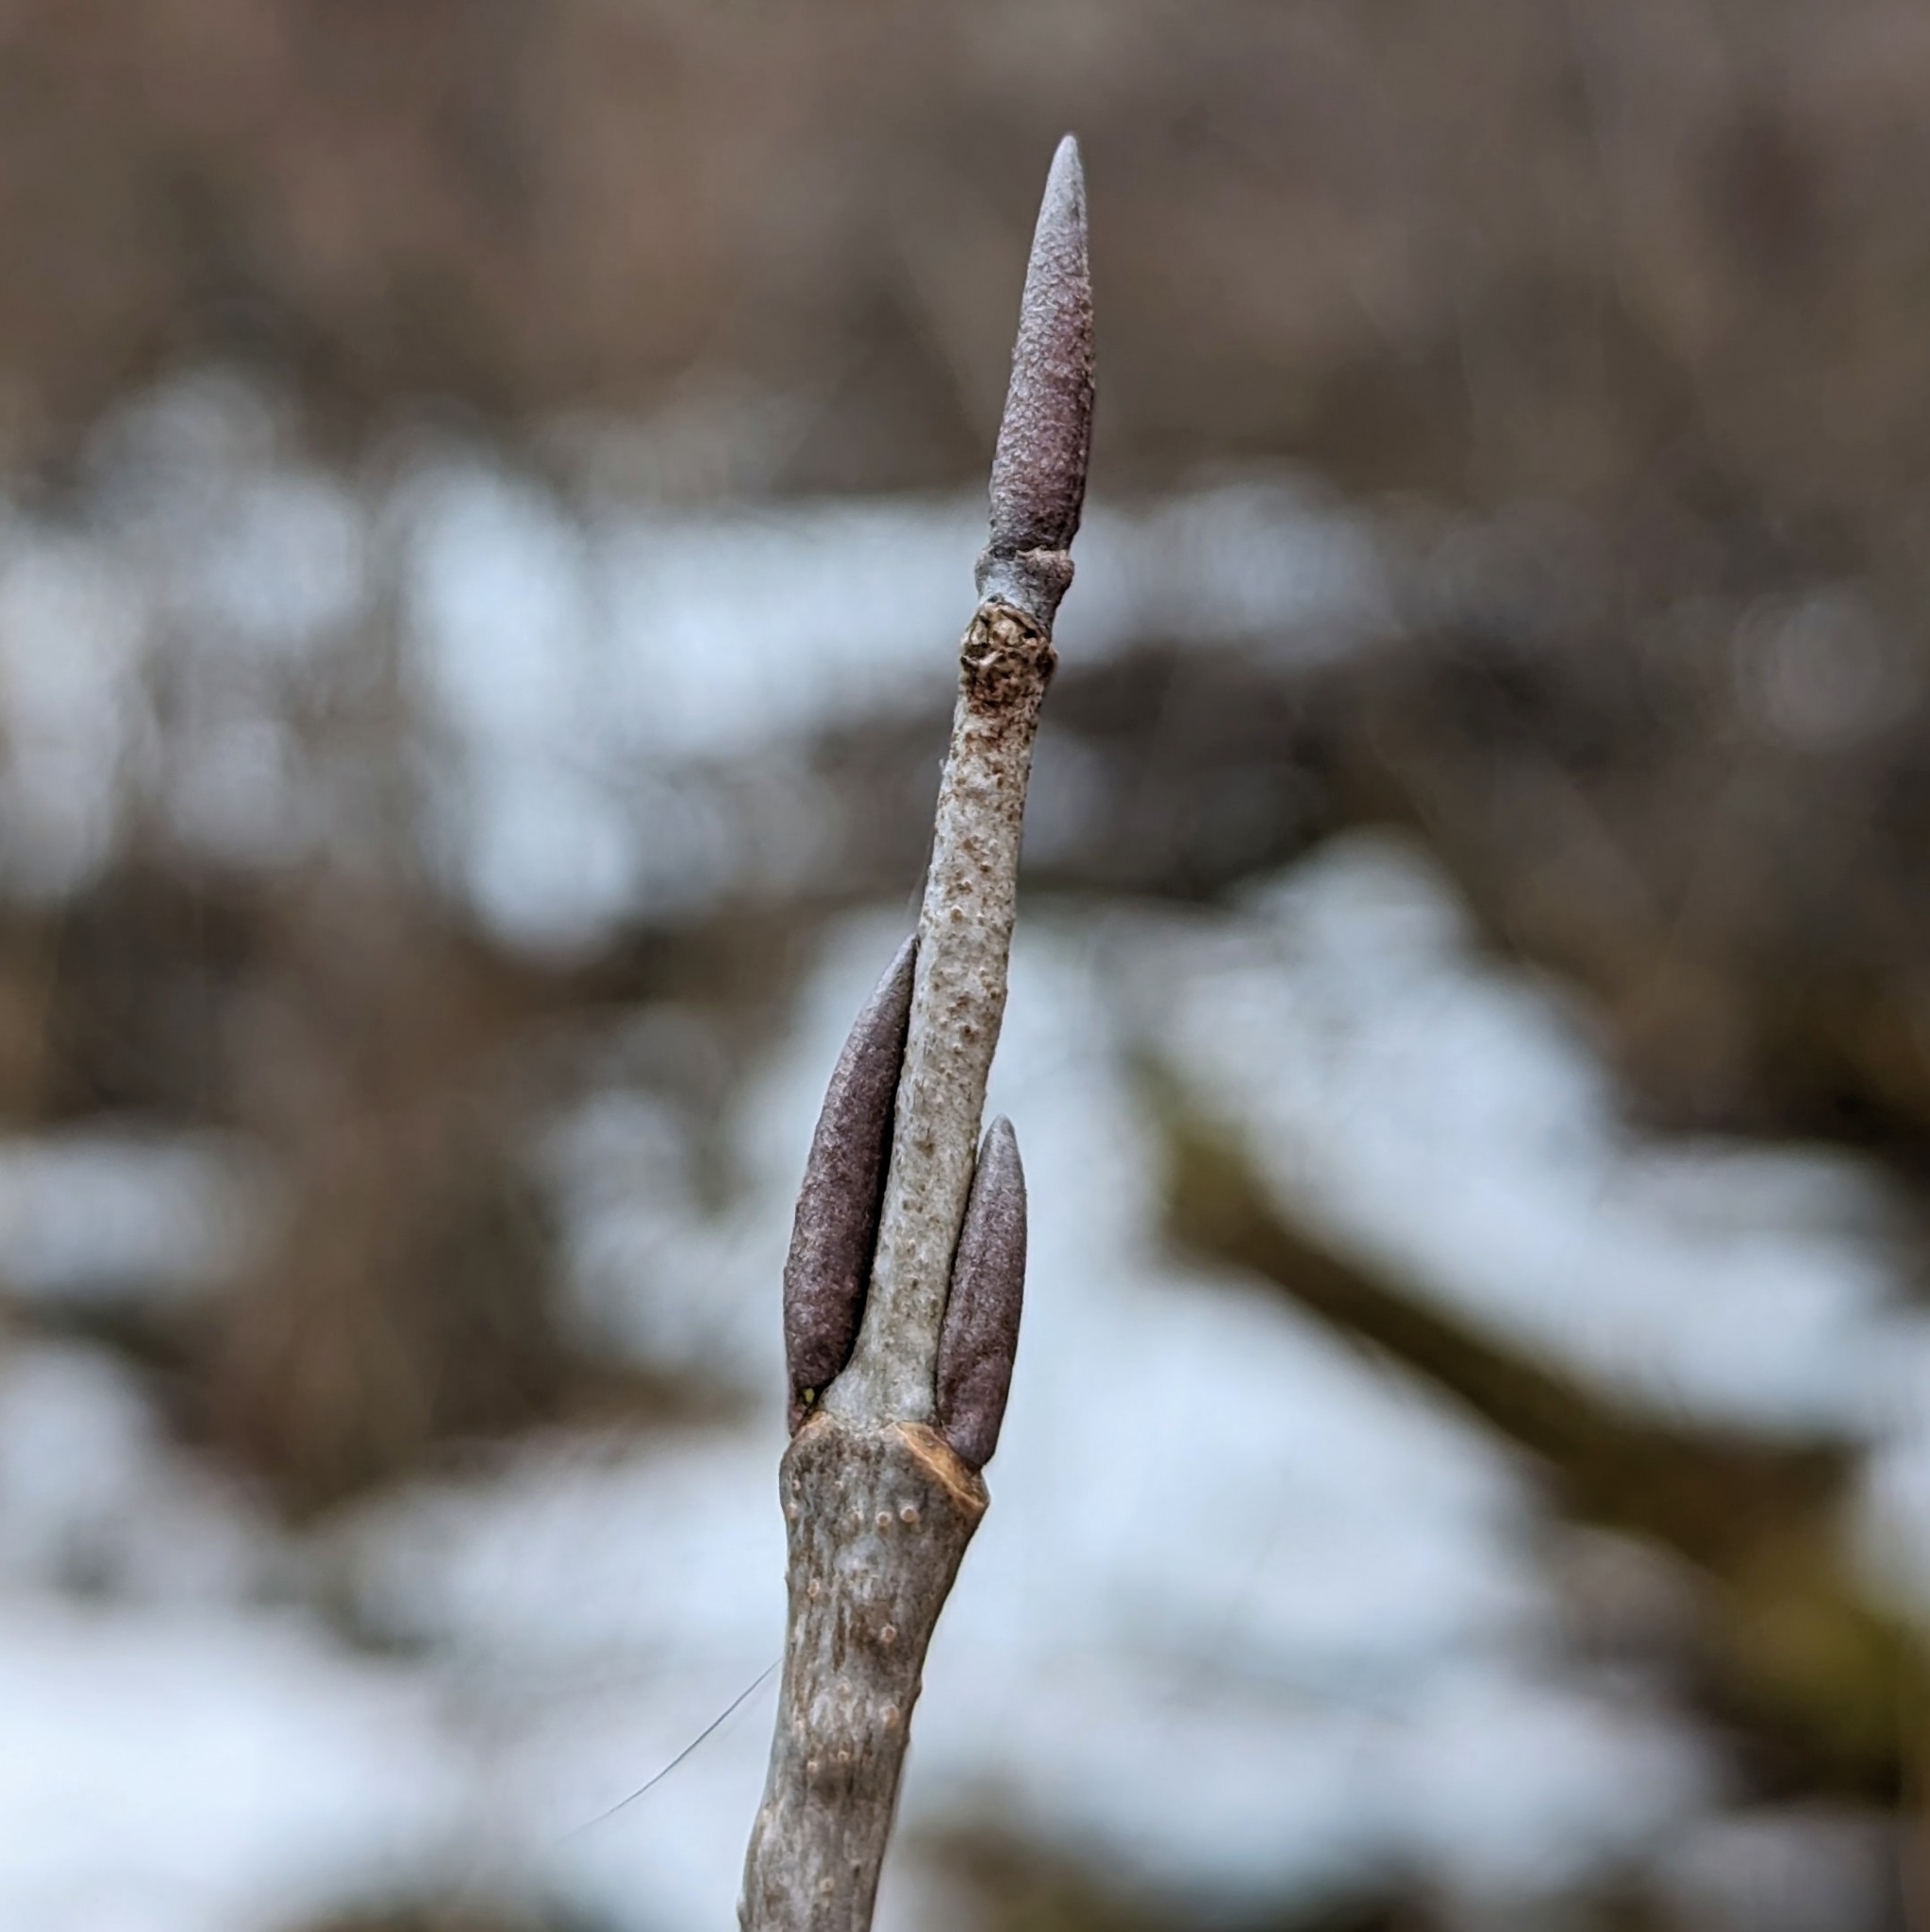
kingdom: Plantae
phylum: Tracheophyta
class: Magnoliopsida
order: Dipsacales
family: Viburnaceae
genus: Viburnum
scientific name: Viburnum lentago
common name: Black haw
